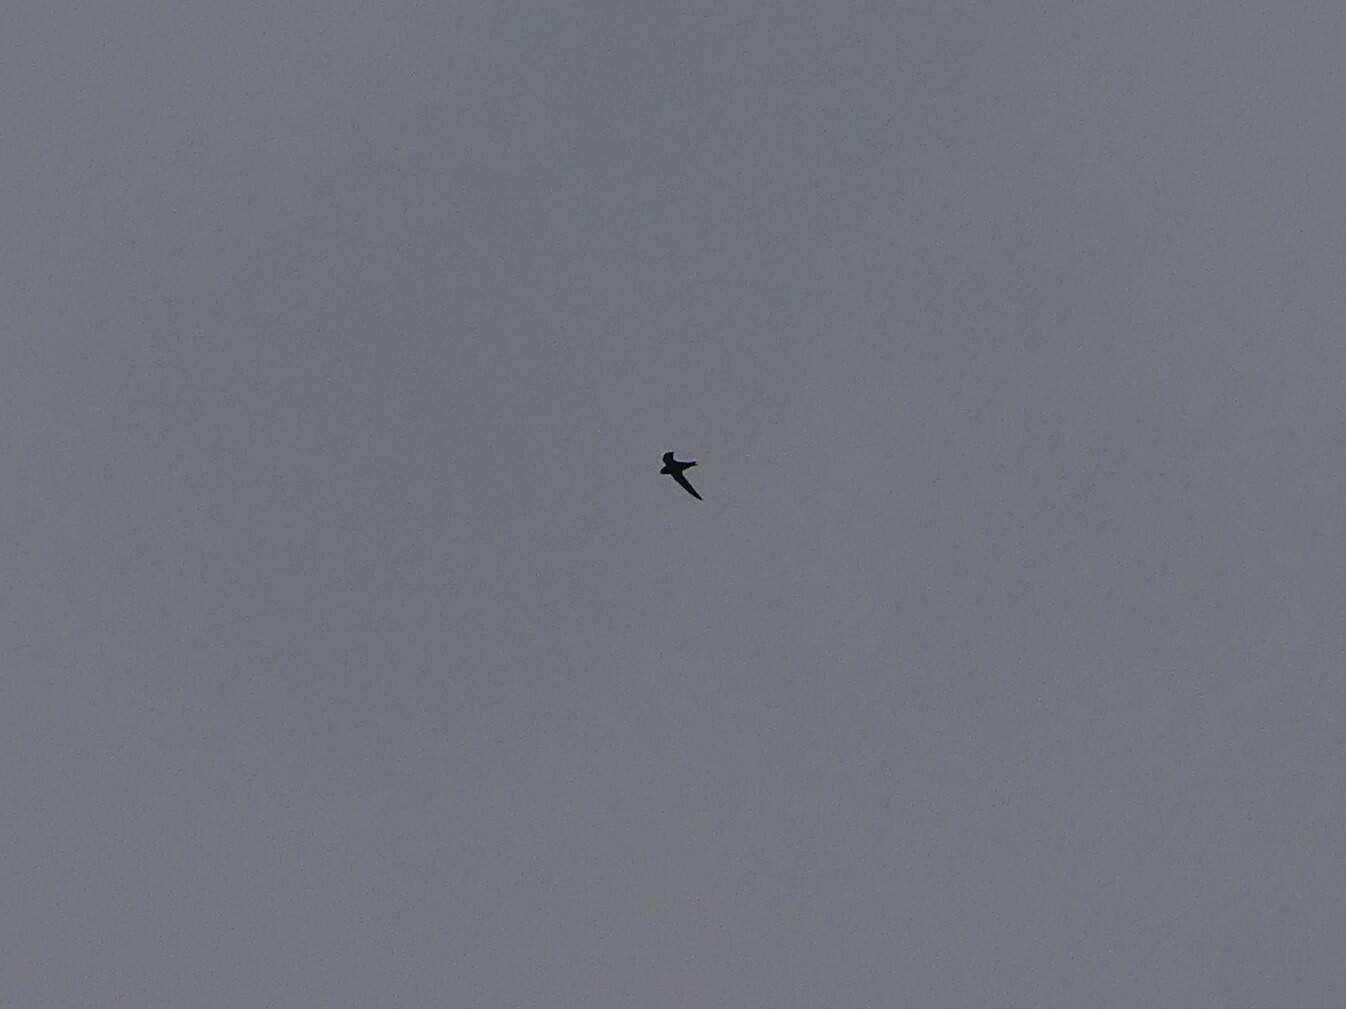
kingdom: Animalia
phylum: Chordata
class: Aves
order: Apodiformes
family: Apodidae
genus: Cypseloides
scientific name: Cypseloides niger
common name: Black swift
